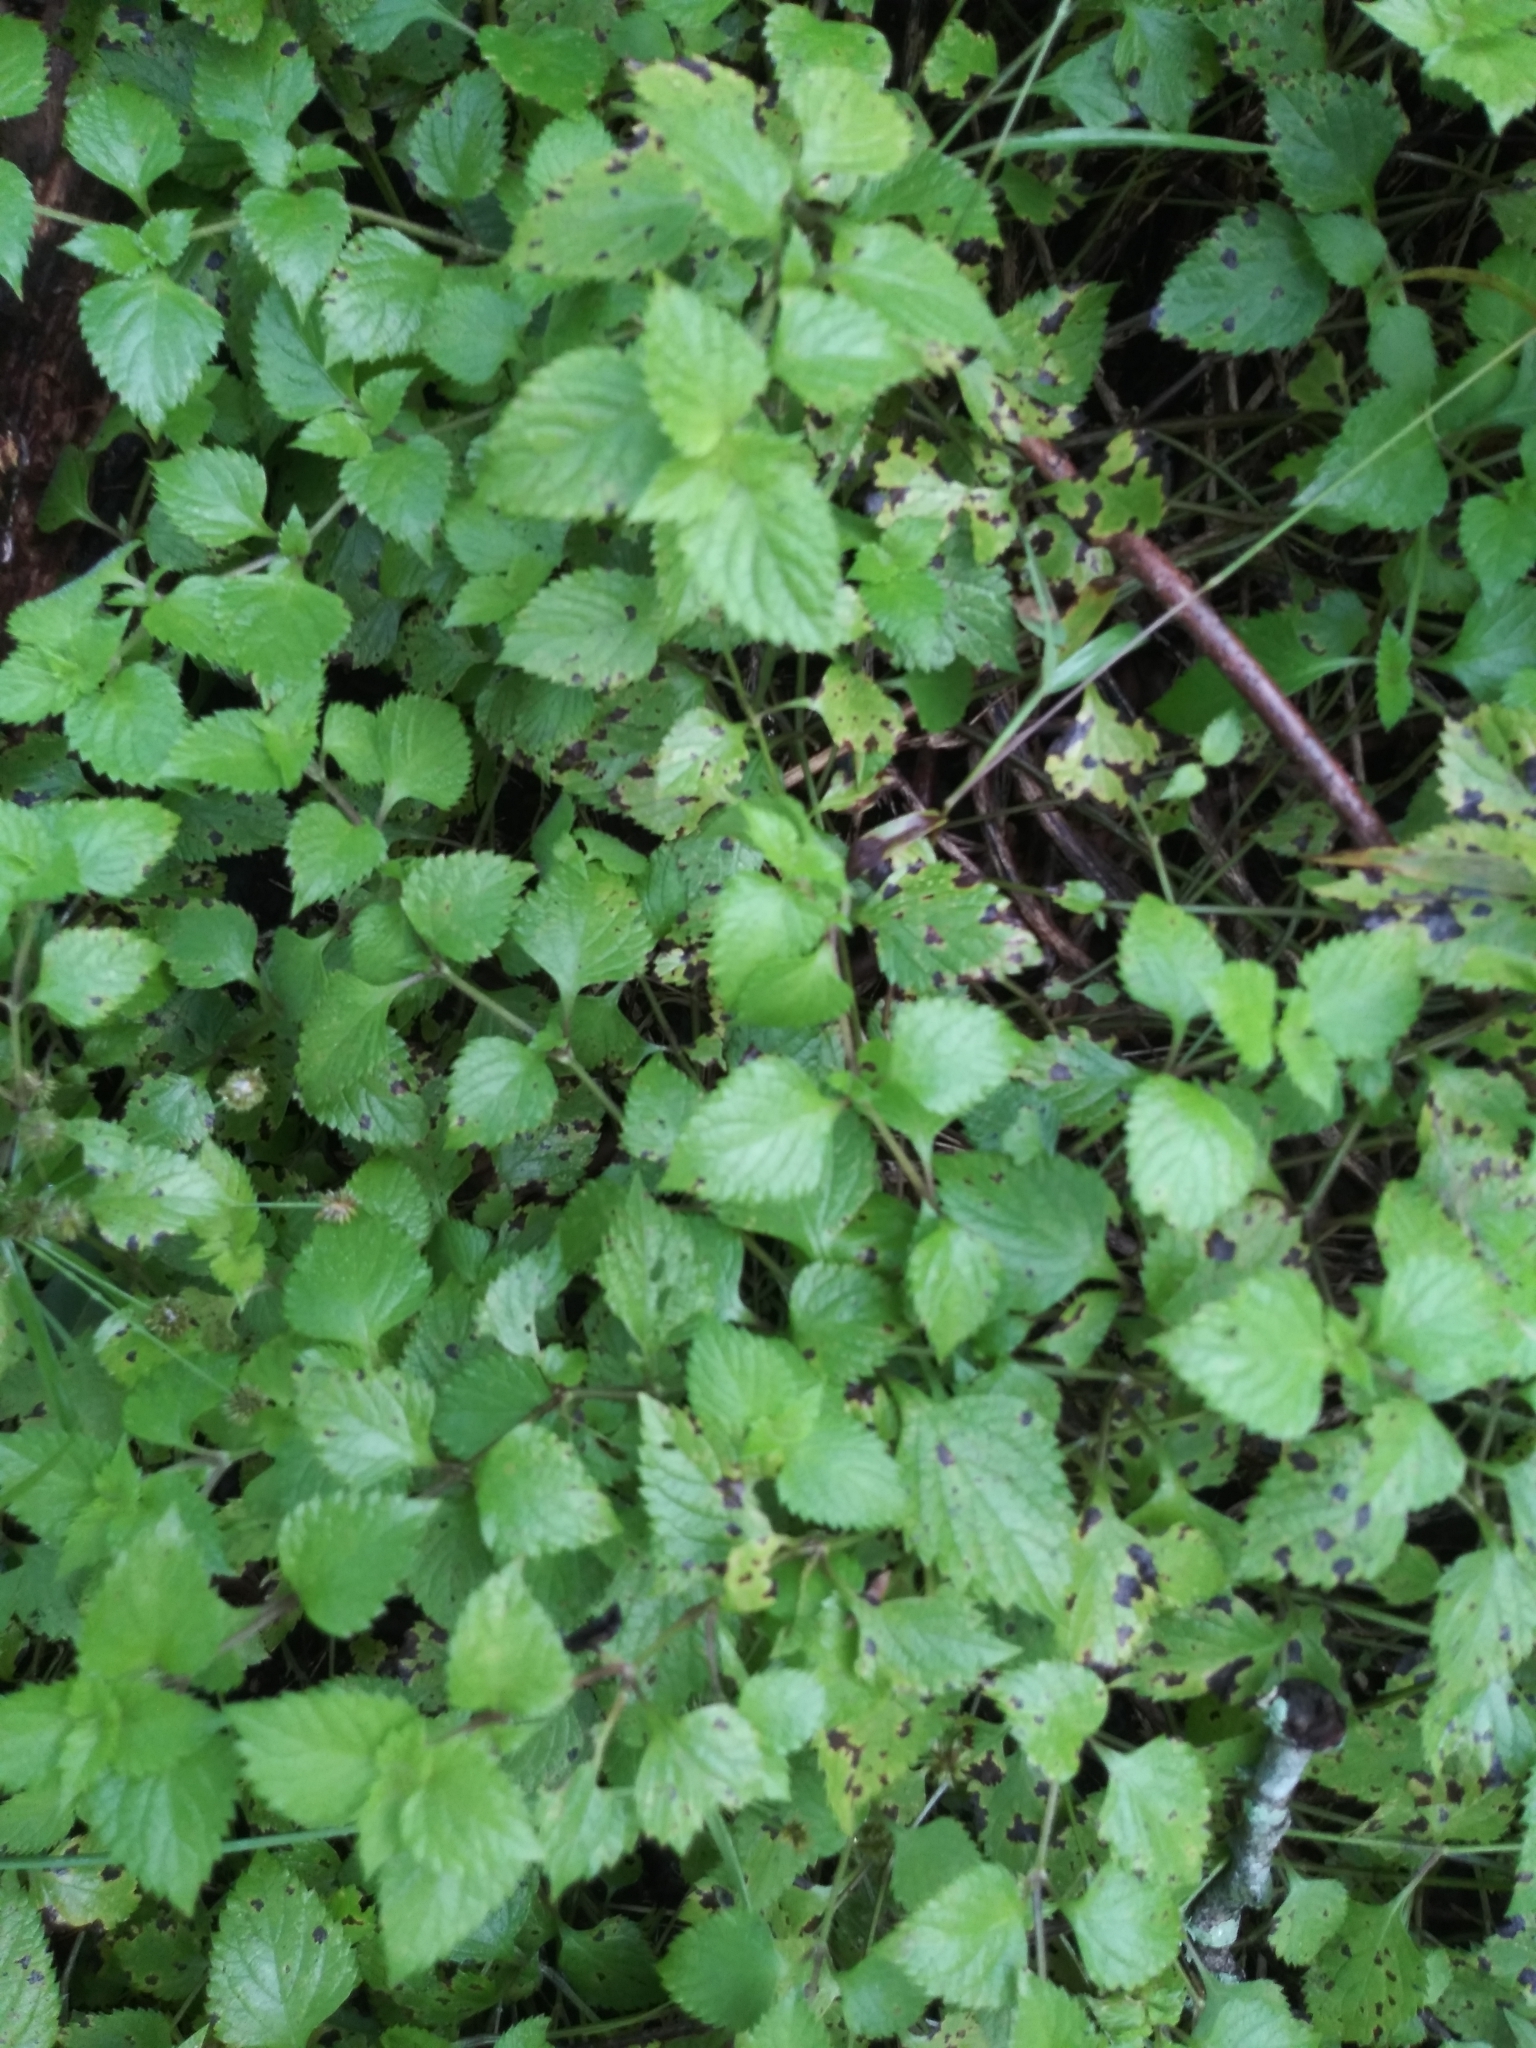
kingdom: Plantae
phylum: Tracheophyta
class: Magnoliopsida
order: Lamiales
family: Lamiaceae
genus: Salvia
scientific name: Salvia misella
